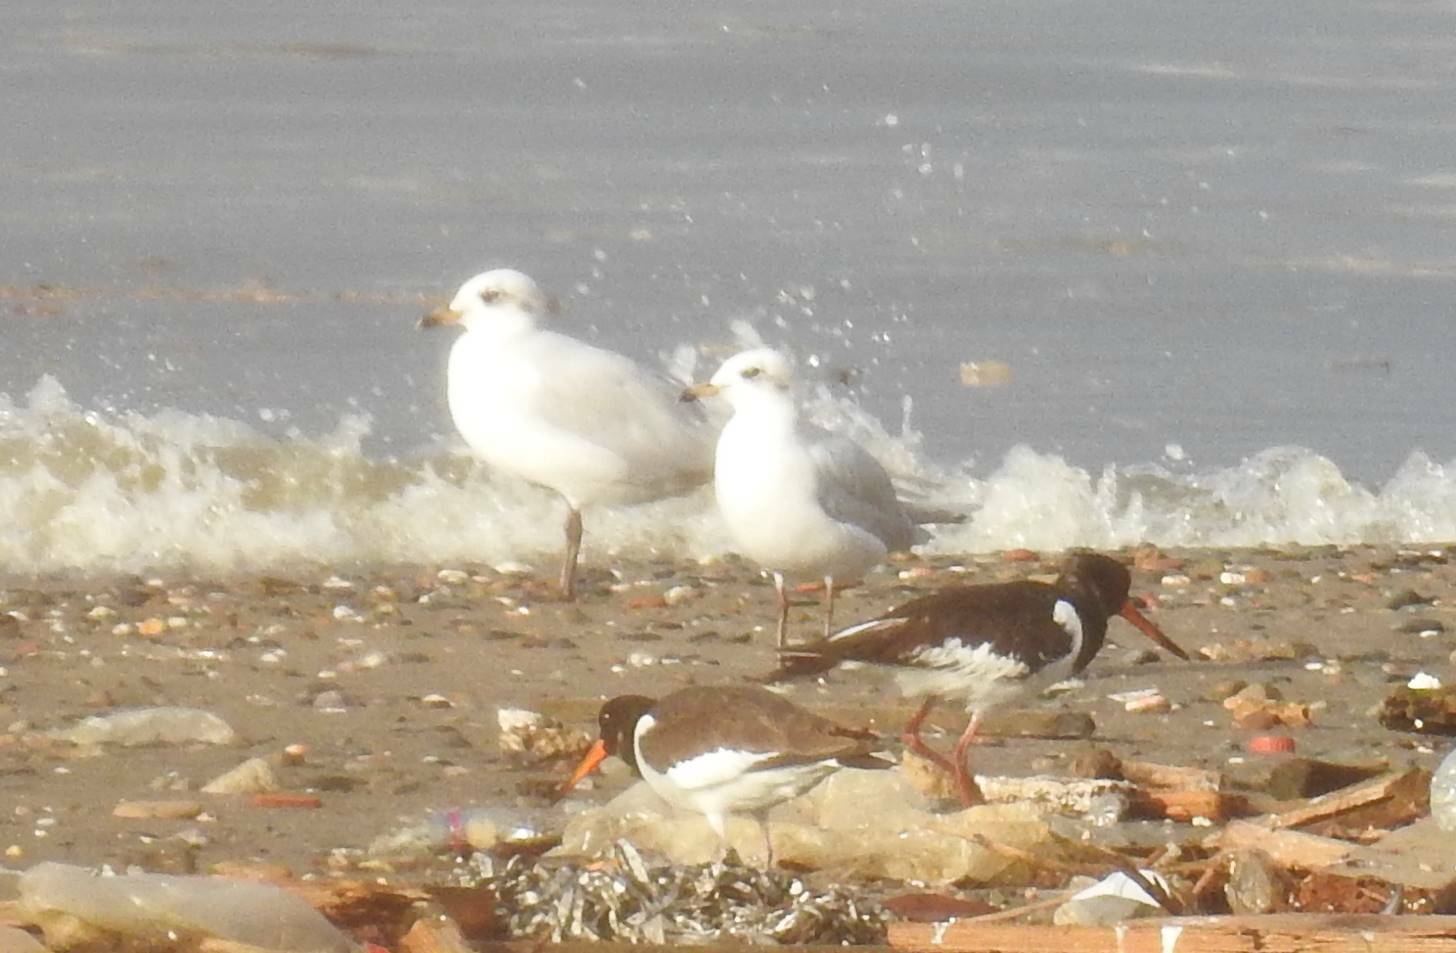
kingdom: Animalia
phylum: Chordata
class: Aves
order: Charadriiformes
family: Haematopodidae
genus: Haematopus
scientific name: Haematopus ostralegus
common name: Eurasian oystercatcher
